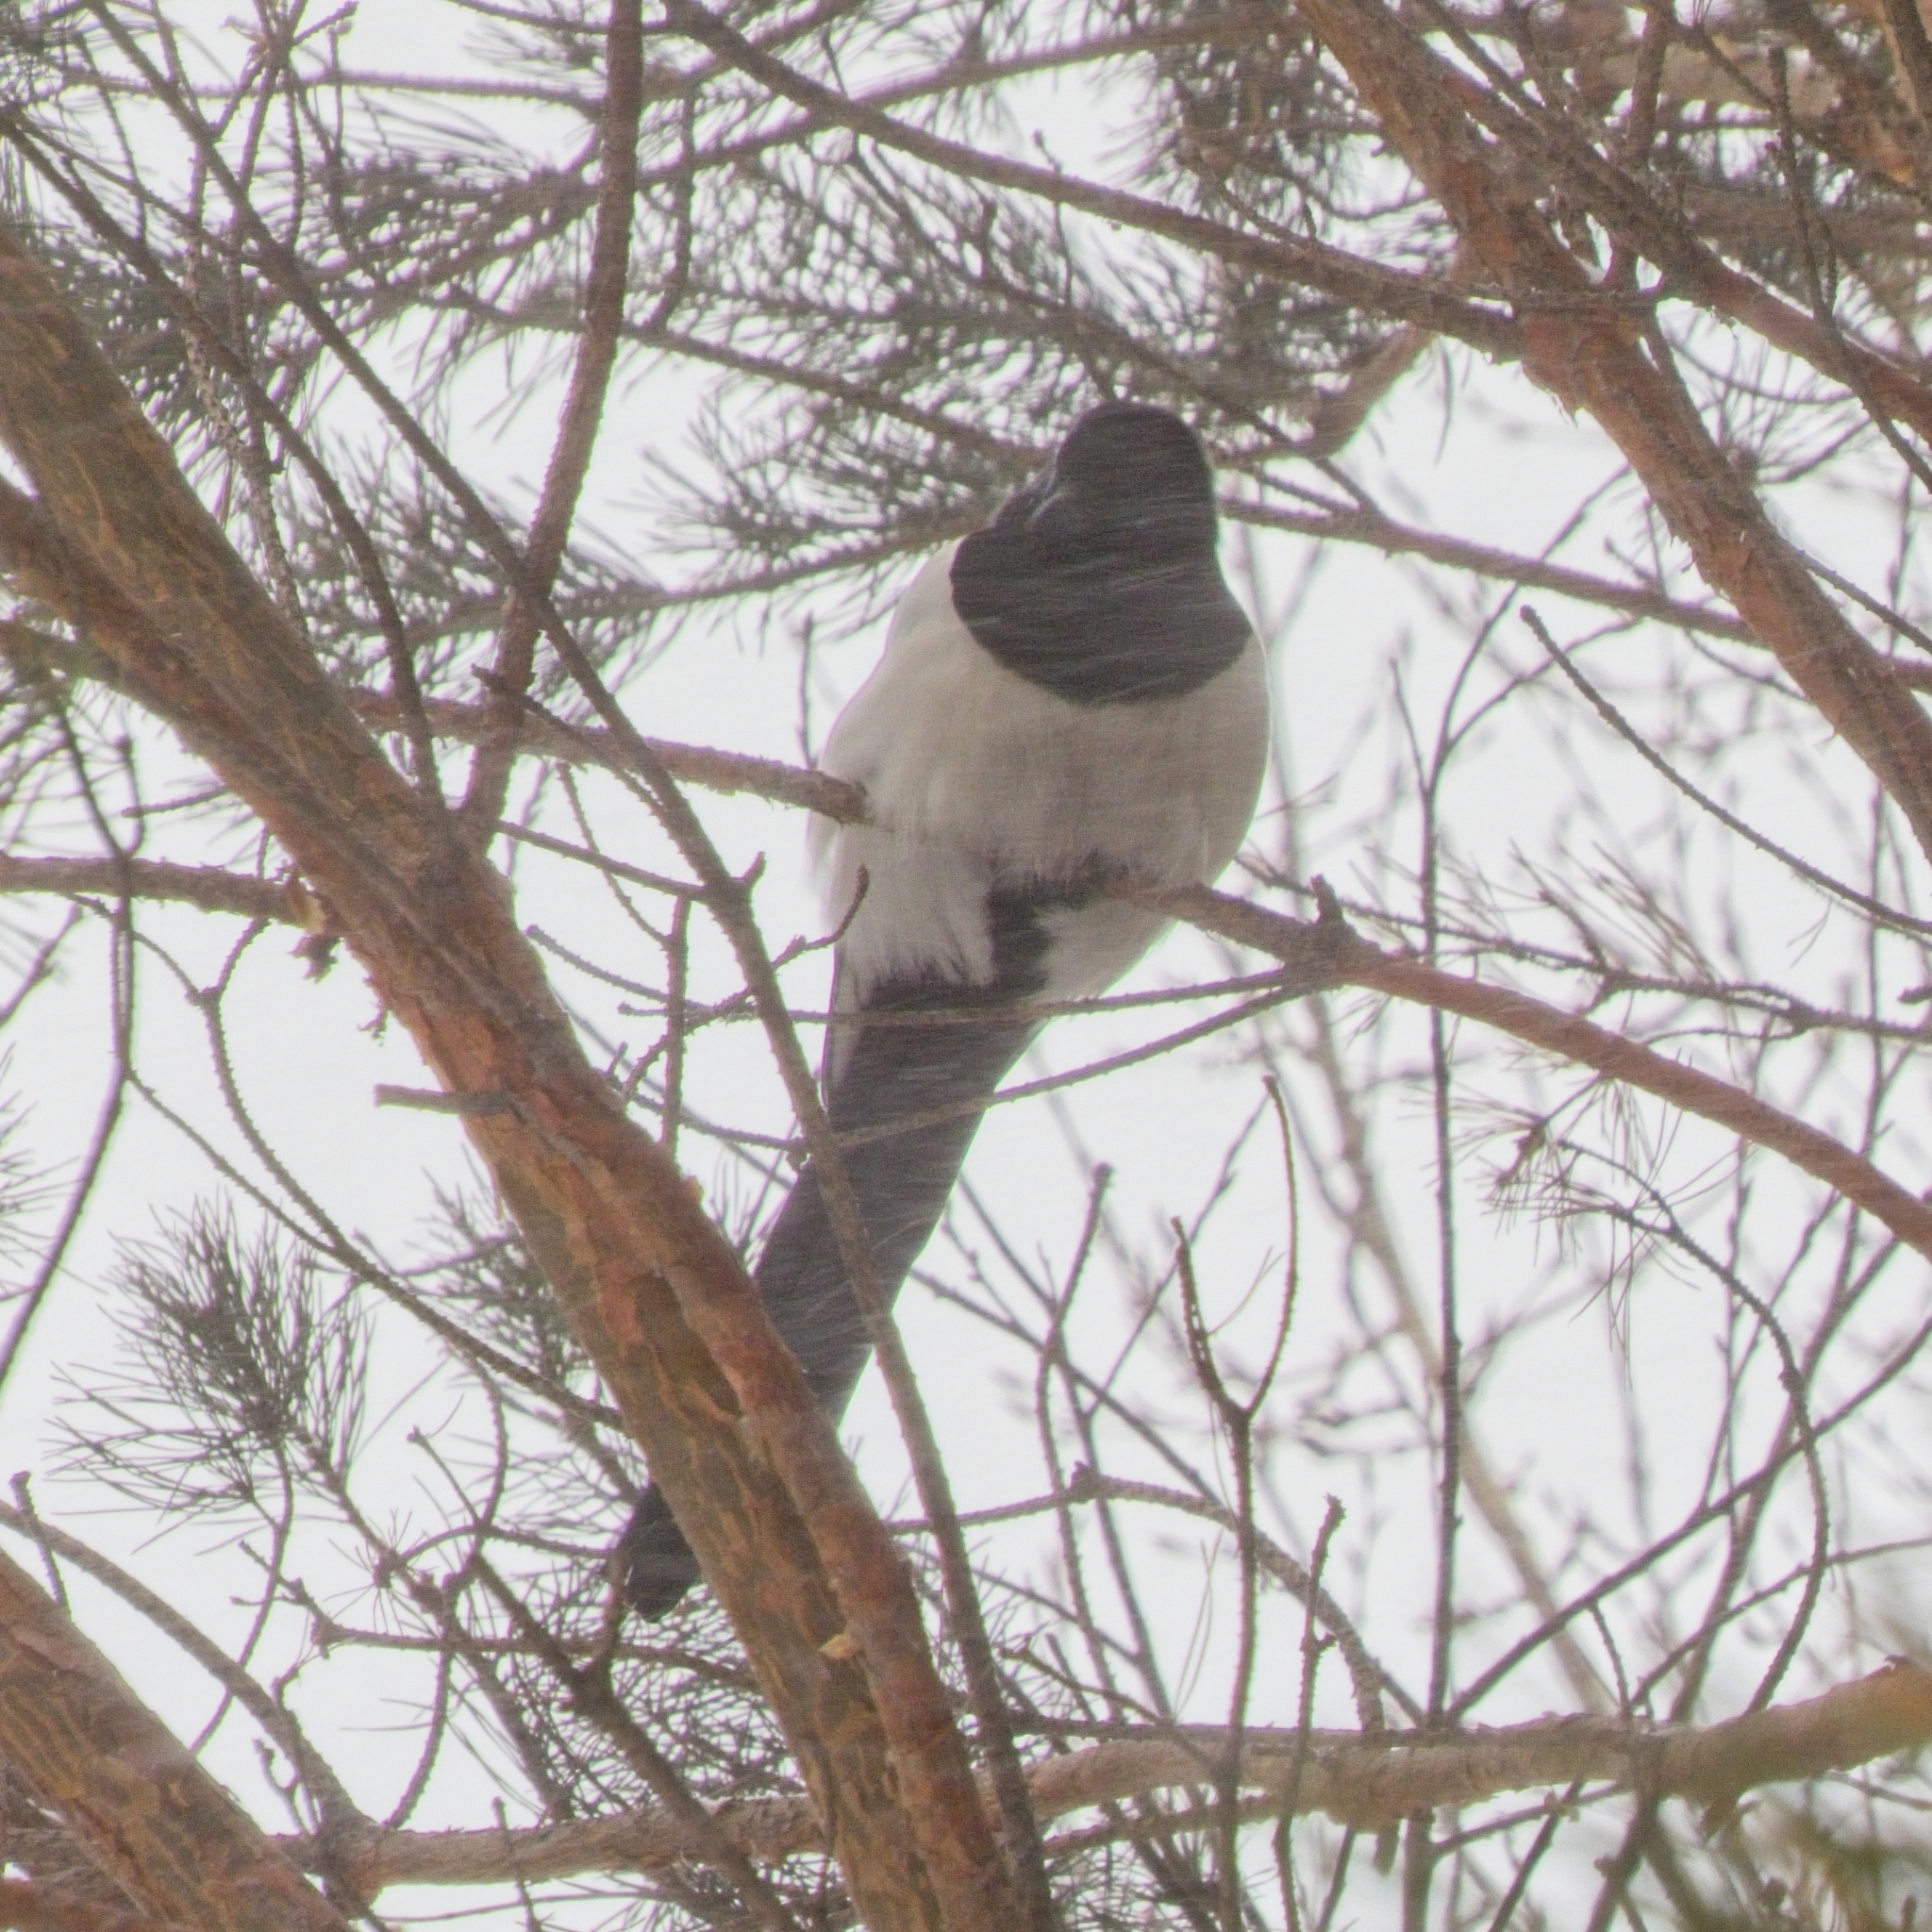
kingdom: Animalia
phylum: Chordata
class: Aves
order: Passeriformes
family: Corvidae
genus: Pica
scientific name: Pica pica
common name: Eurasian magpie
